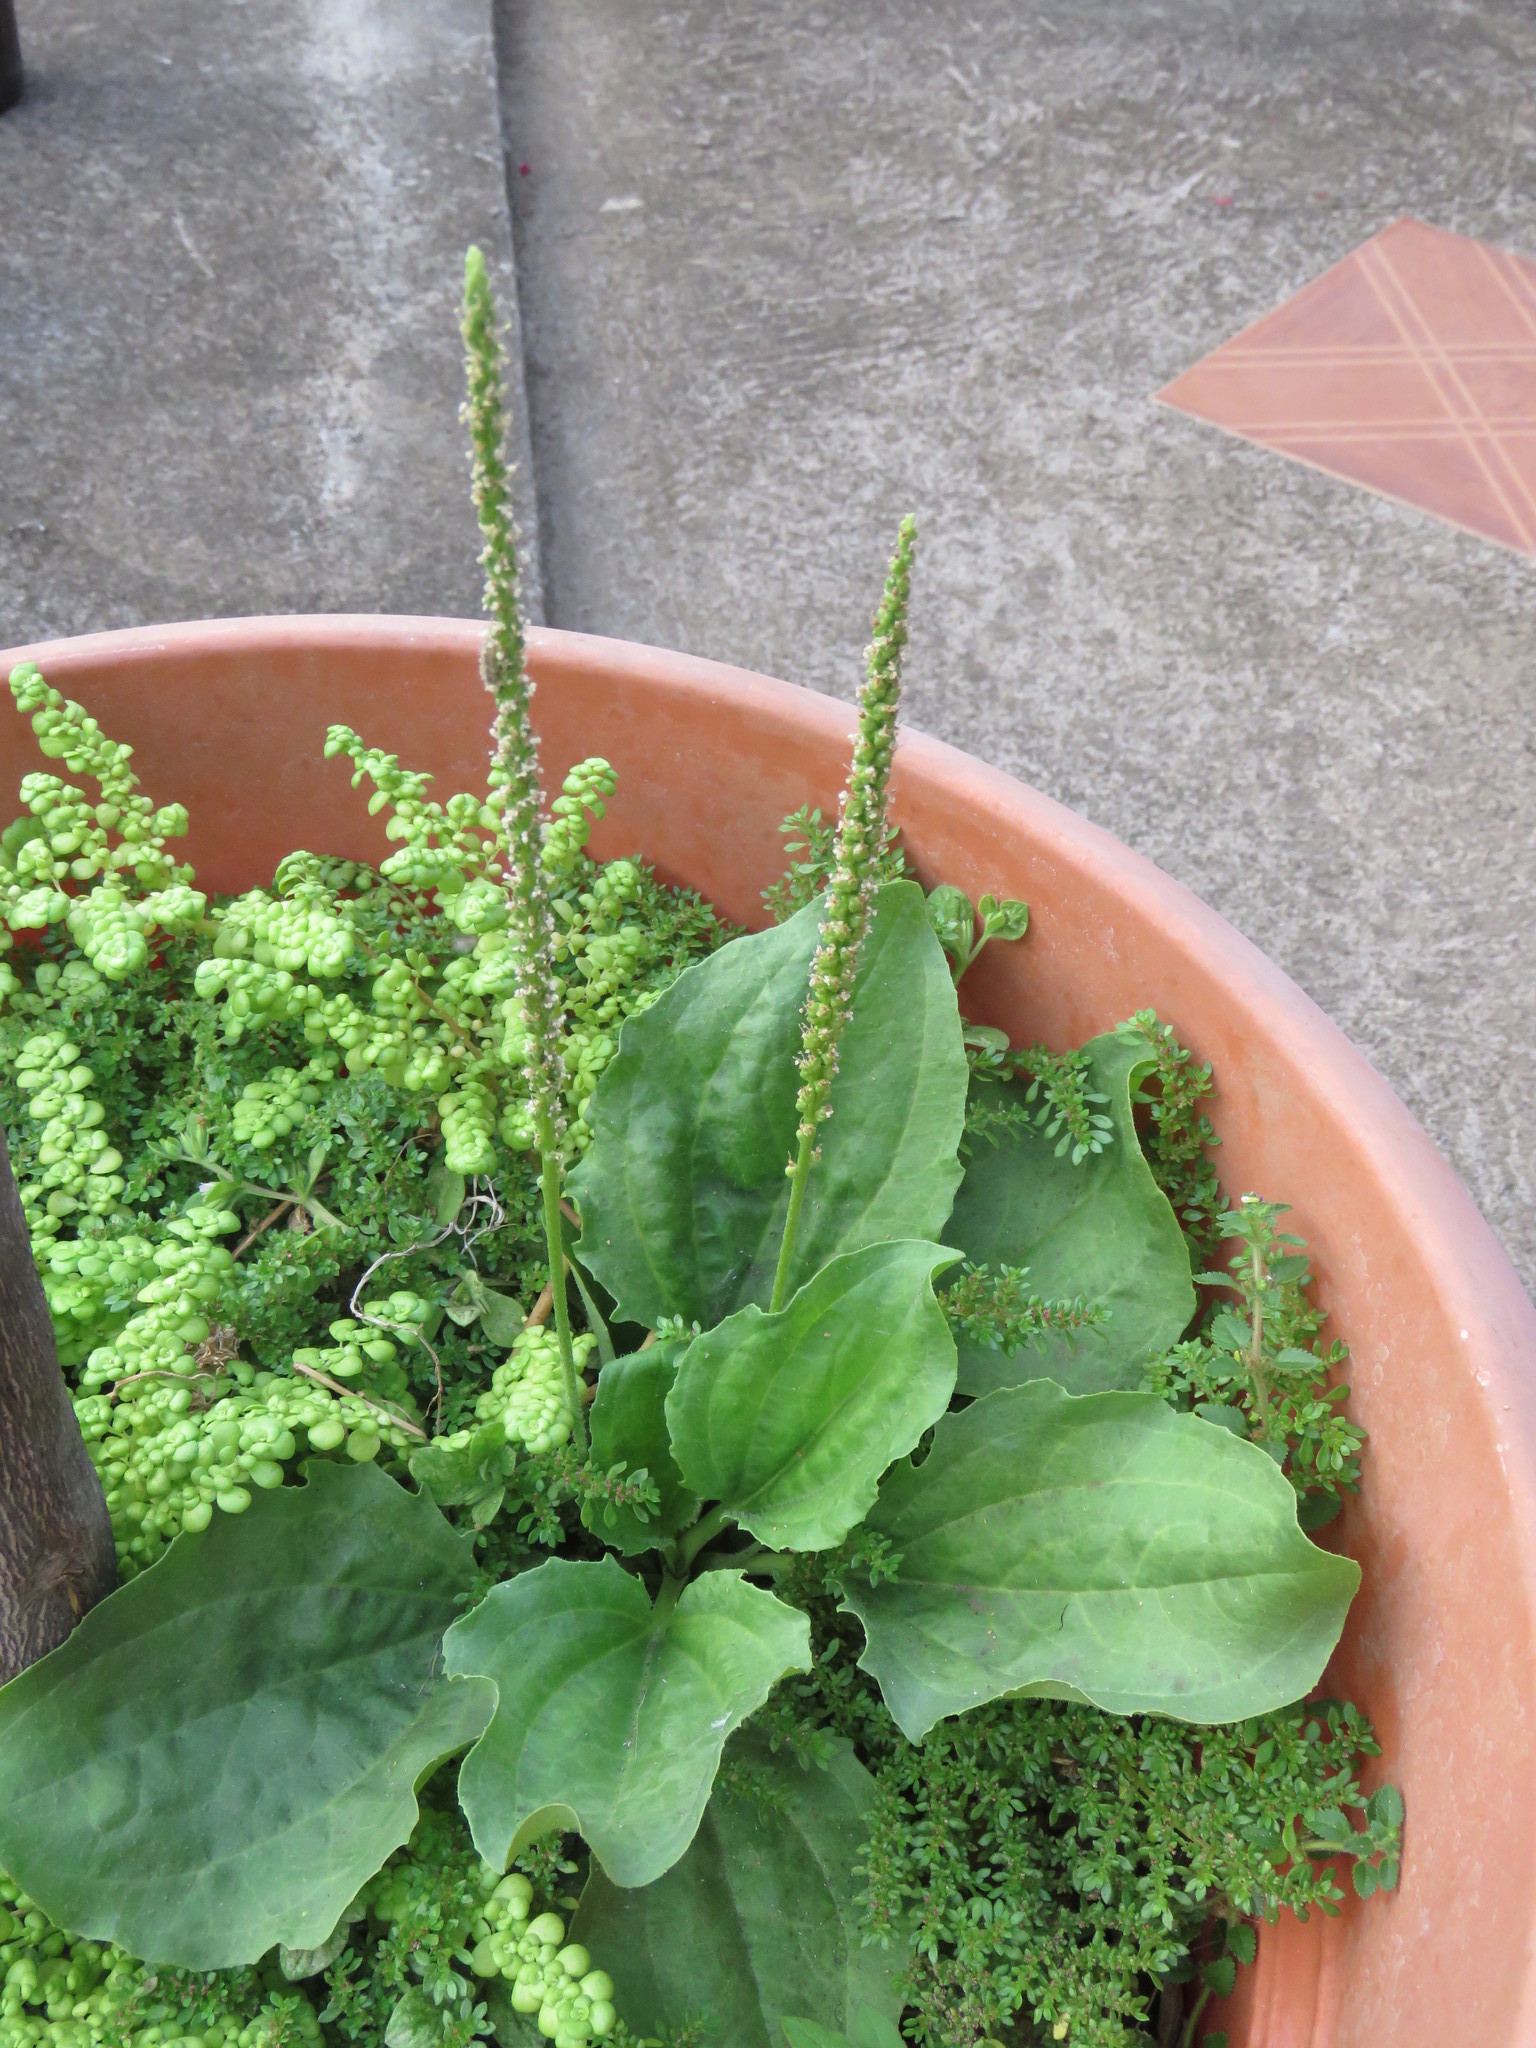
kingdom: Plantae
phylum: Tracheophyta
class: Magnoliopsida
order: Lamiales
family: Plantaginaceae
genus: Plantago
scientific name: Plantago major
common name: Common plantain
